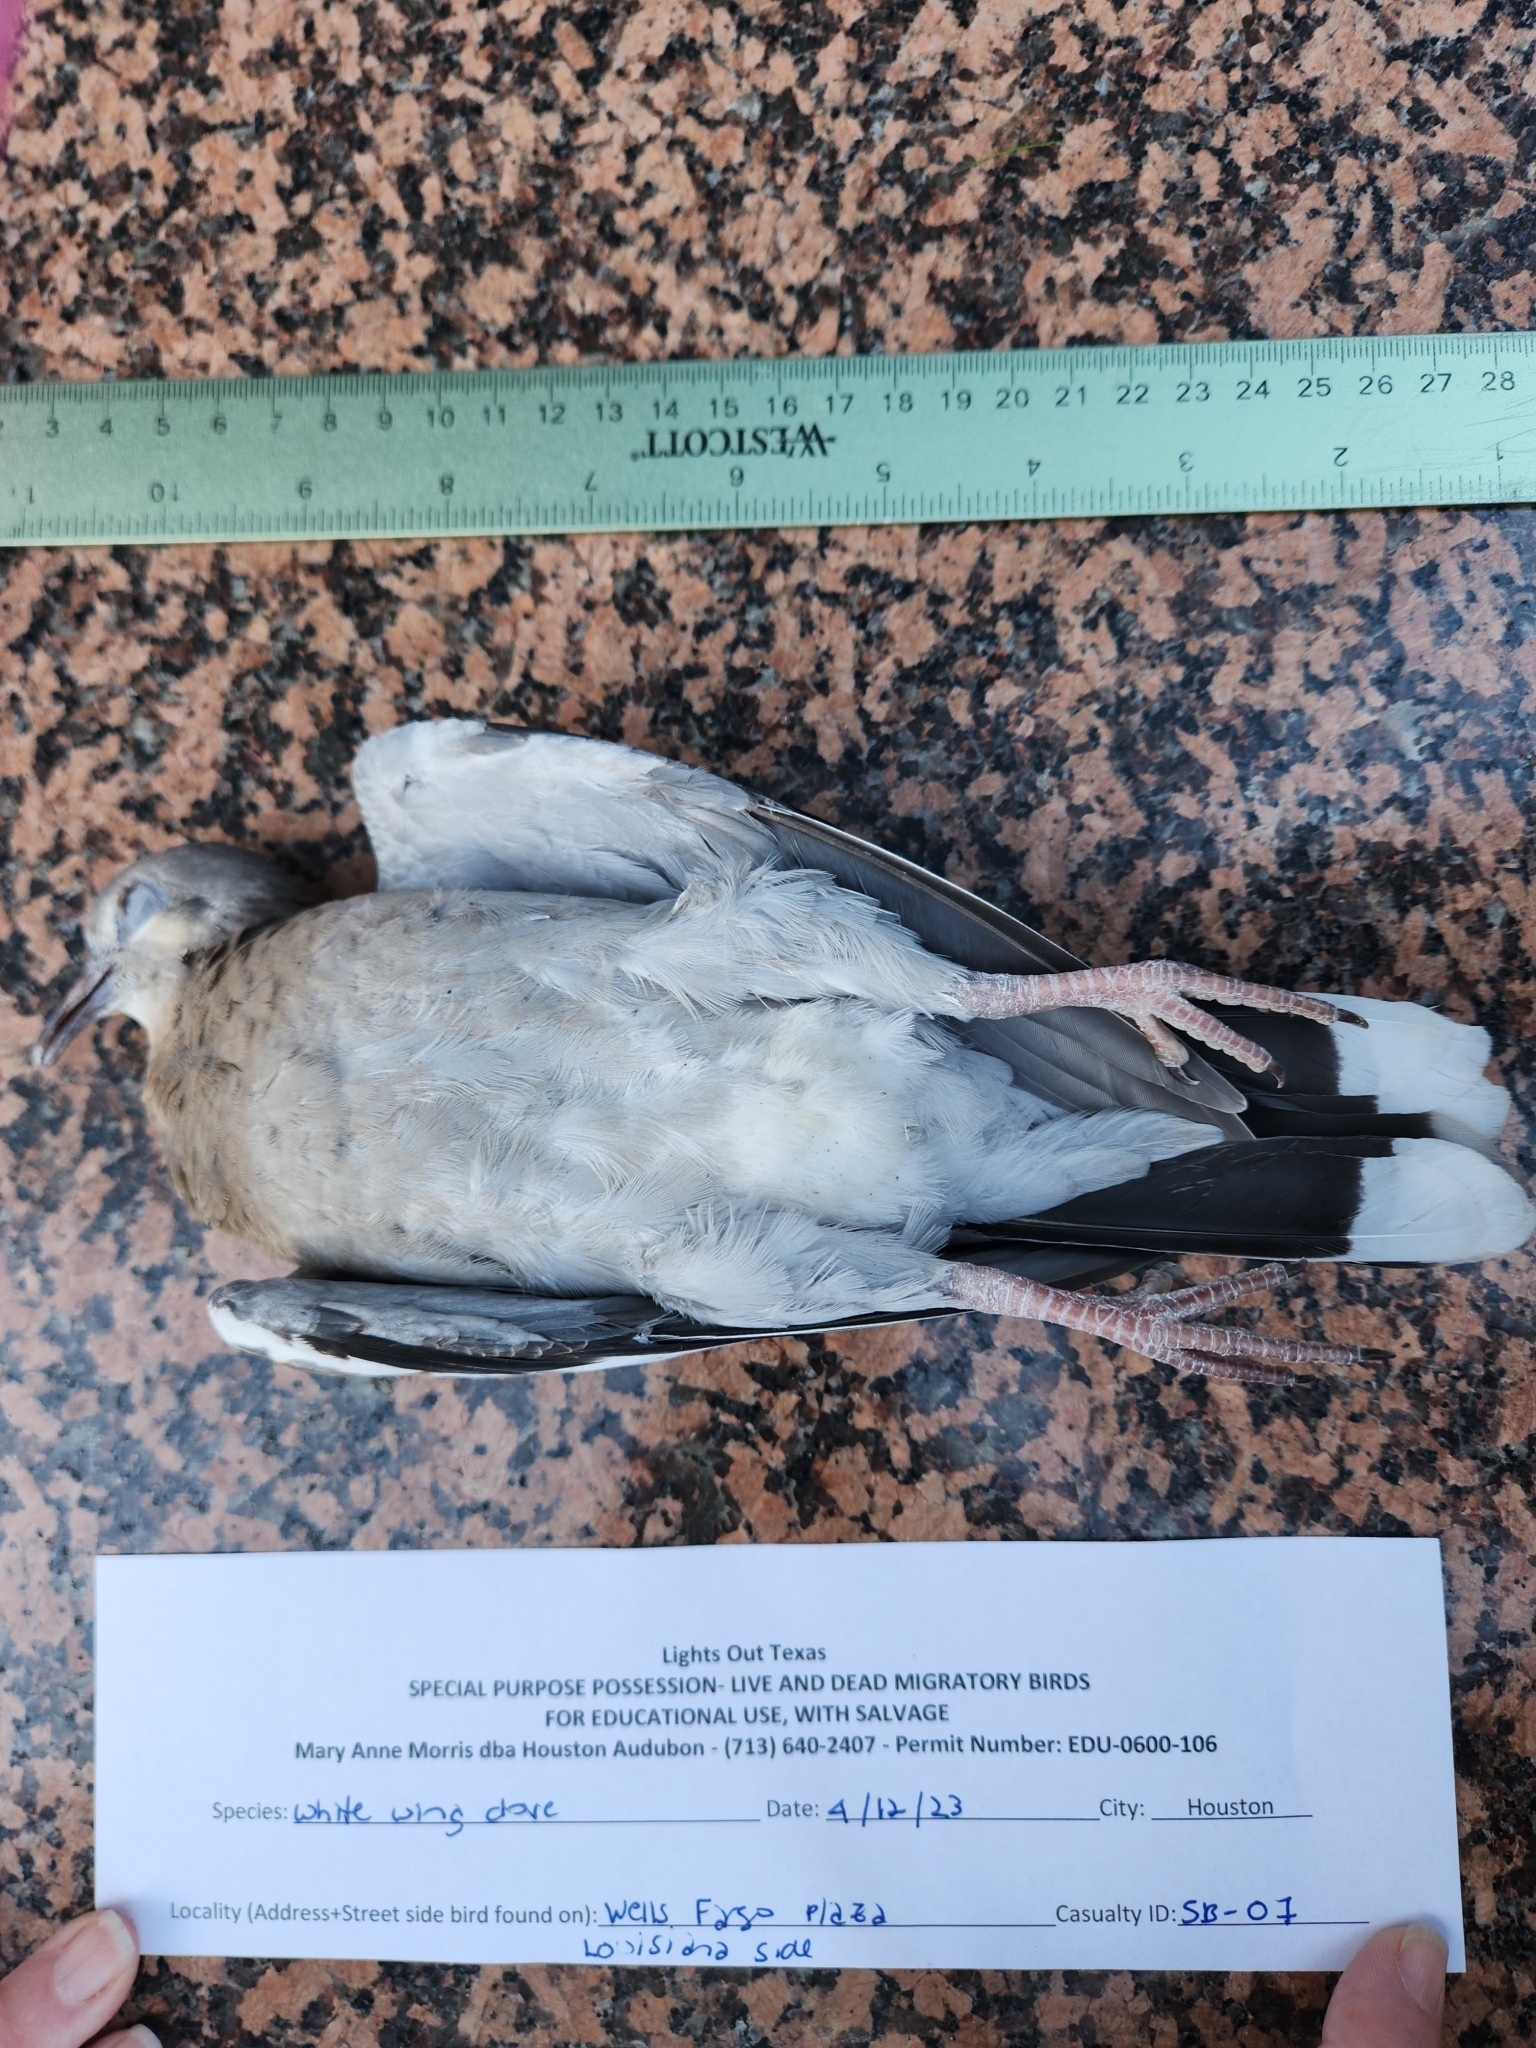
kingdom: Animalia
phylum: Chordata
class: Aves
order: Columbiformes
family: Columbidae
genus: Zenaida
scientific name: Zenaida asiatica
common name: White-winged dove
